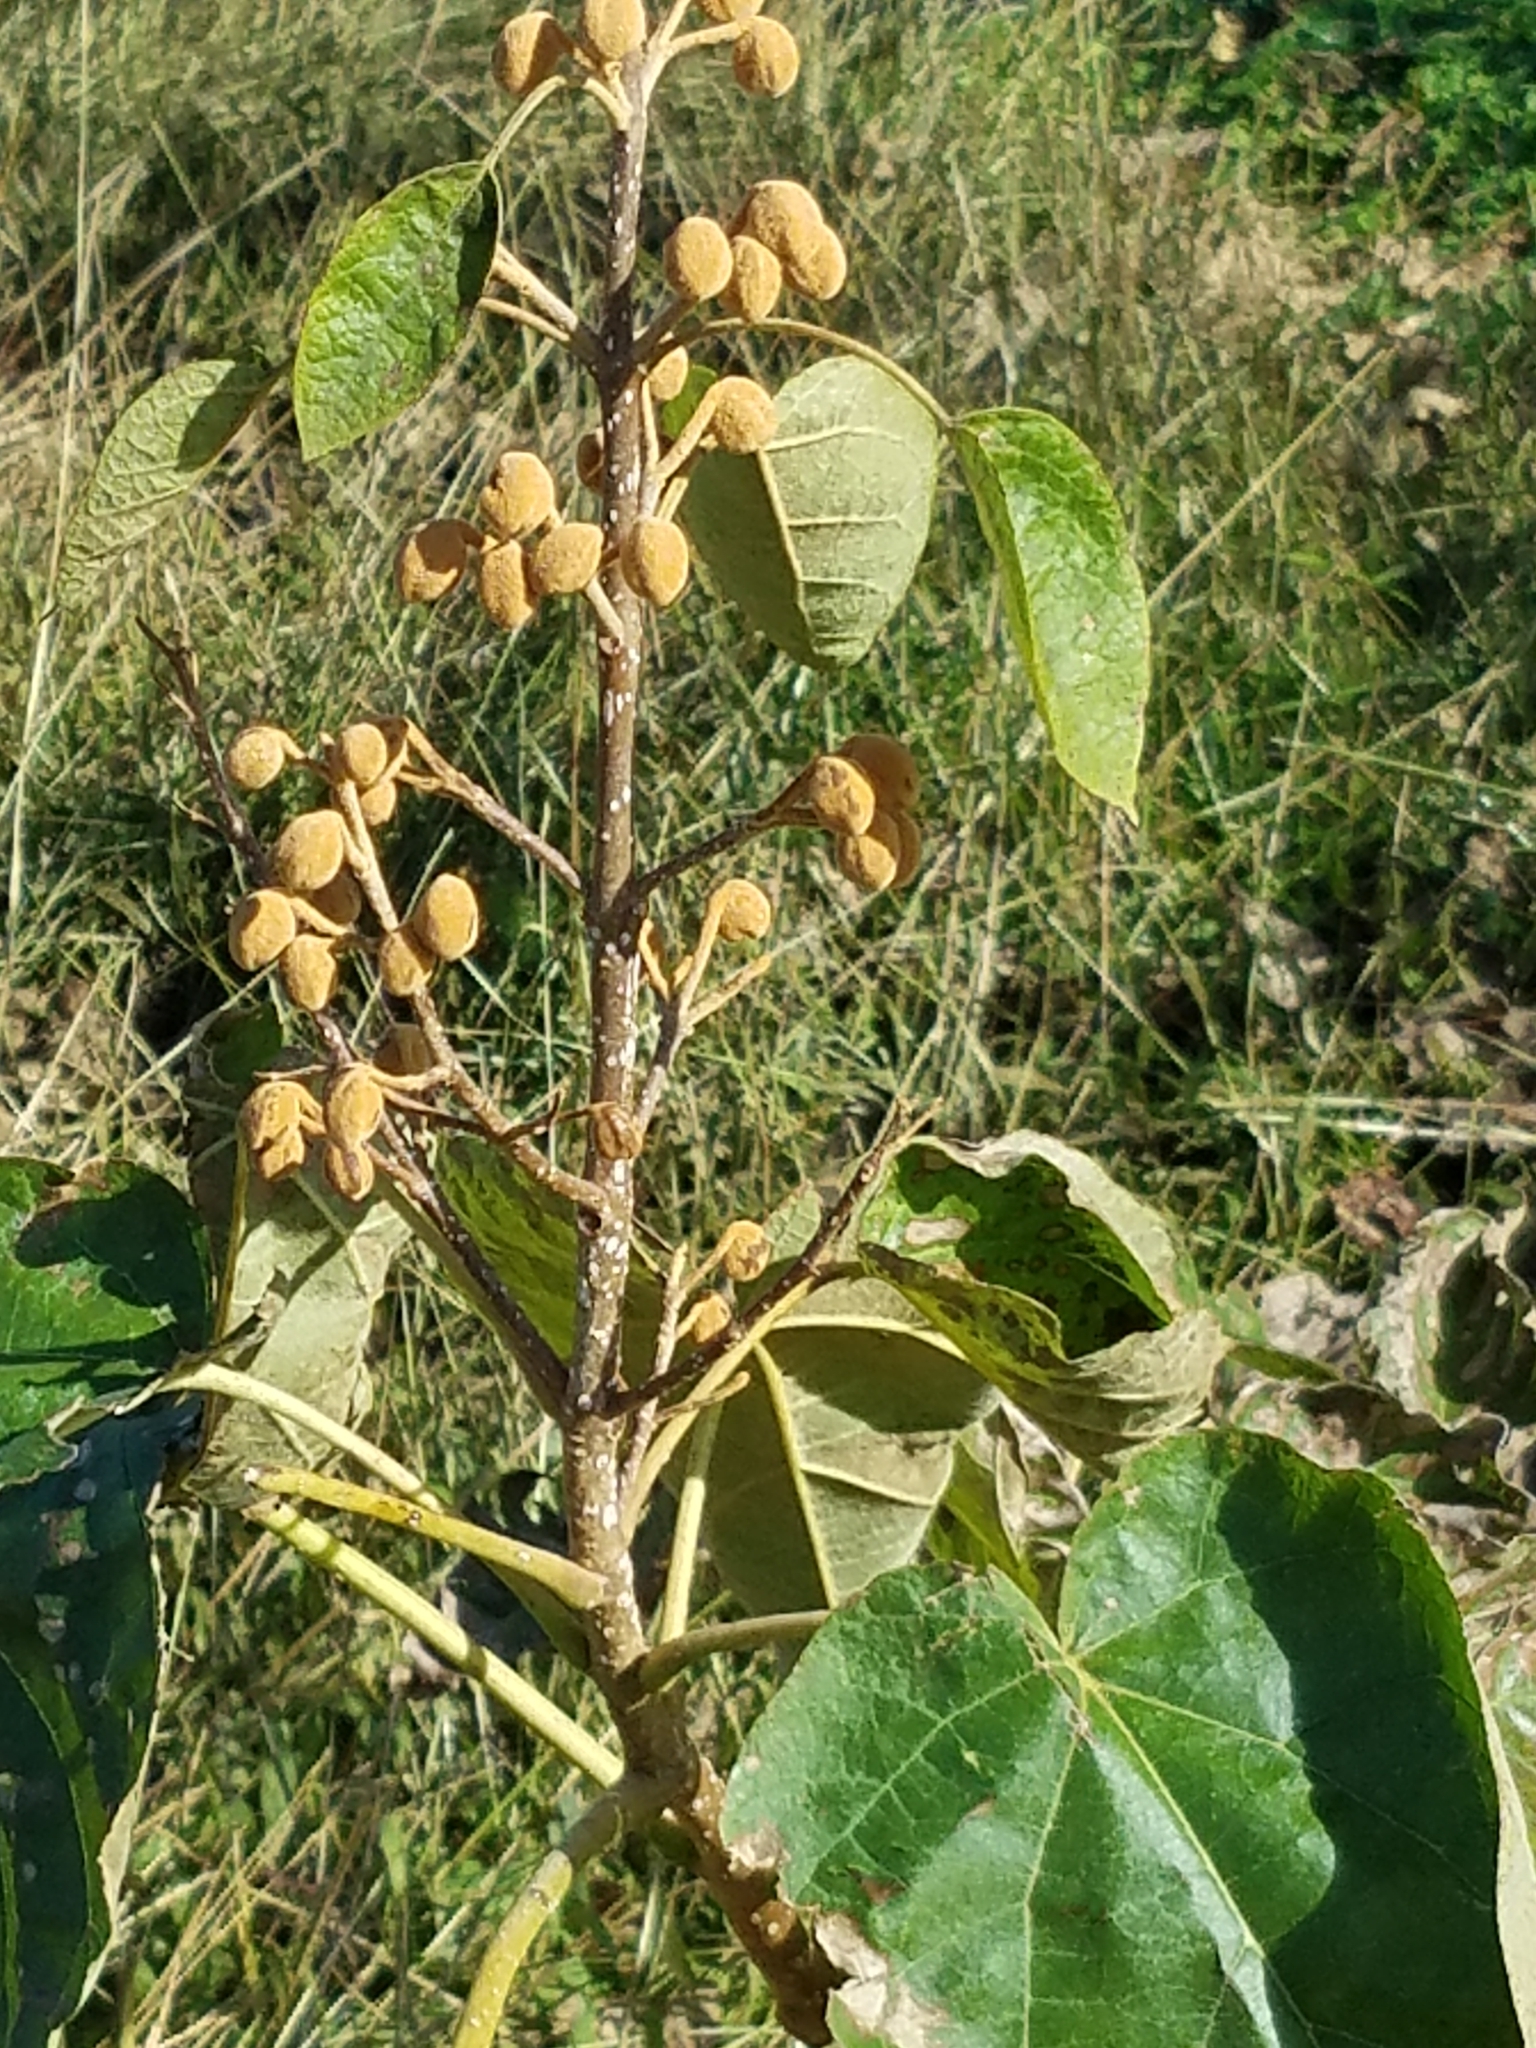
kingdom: Plantae
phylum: Tracheophyta
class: Magnoliopsida
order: Lamiales
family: Paulowniaceae
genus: Paulownia
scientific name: Paulownia tomentosa
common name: Foxglove-tree
